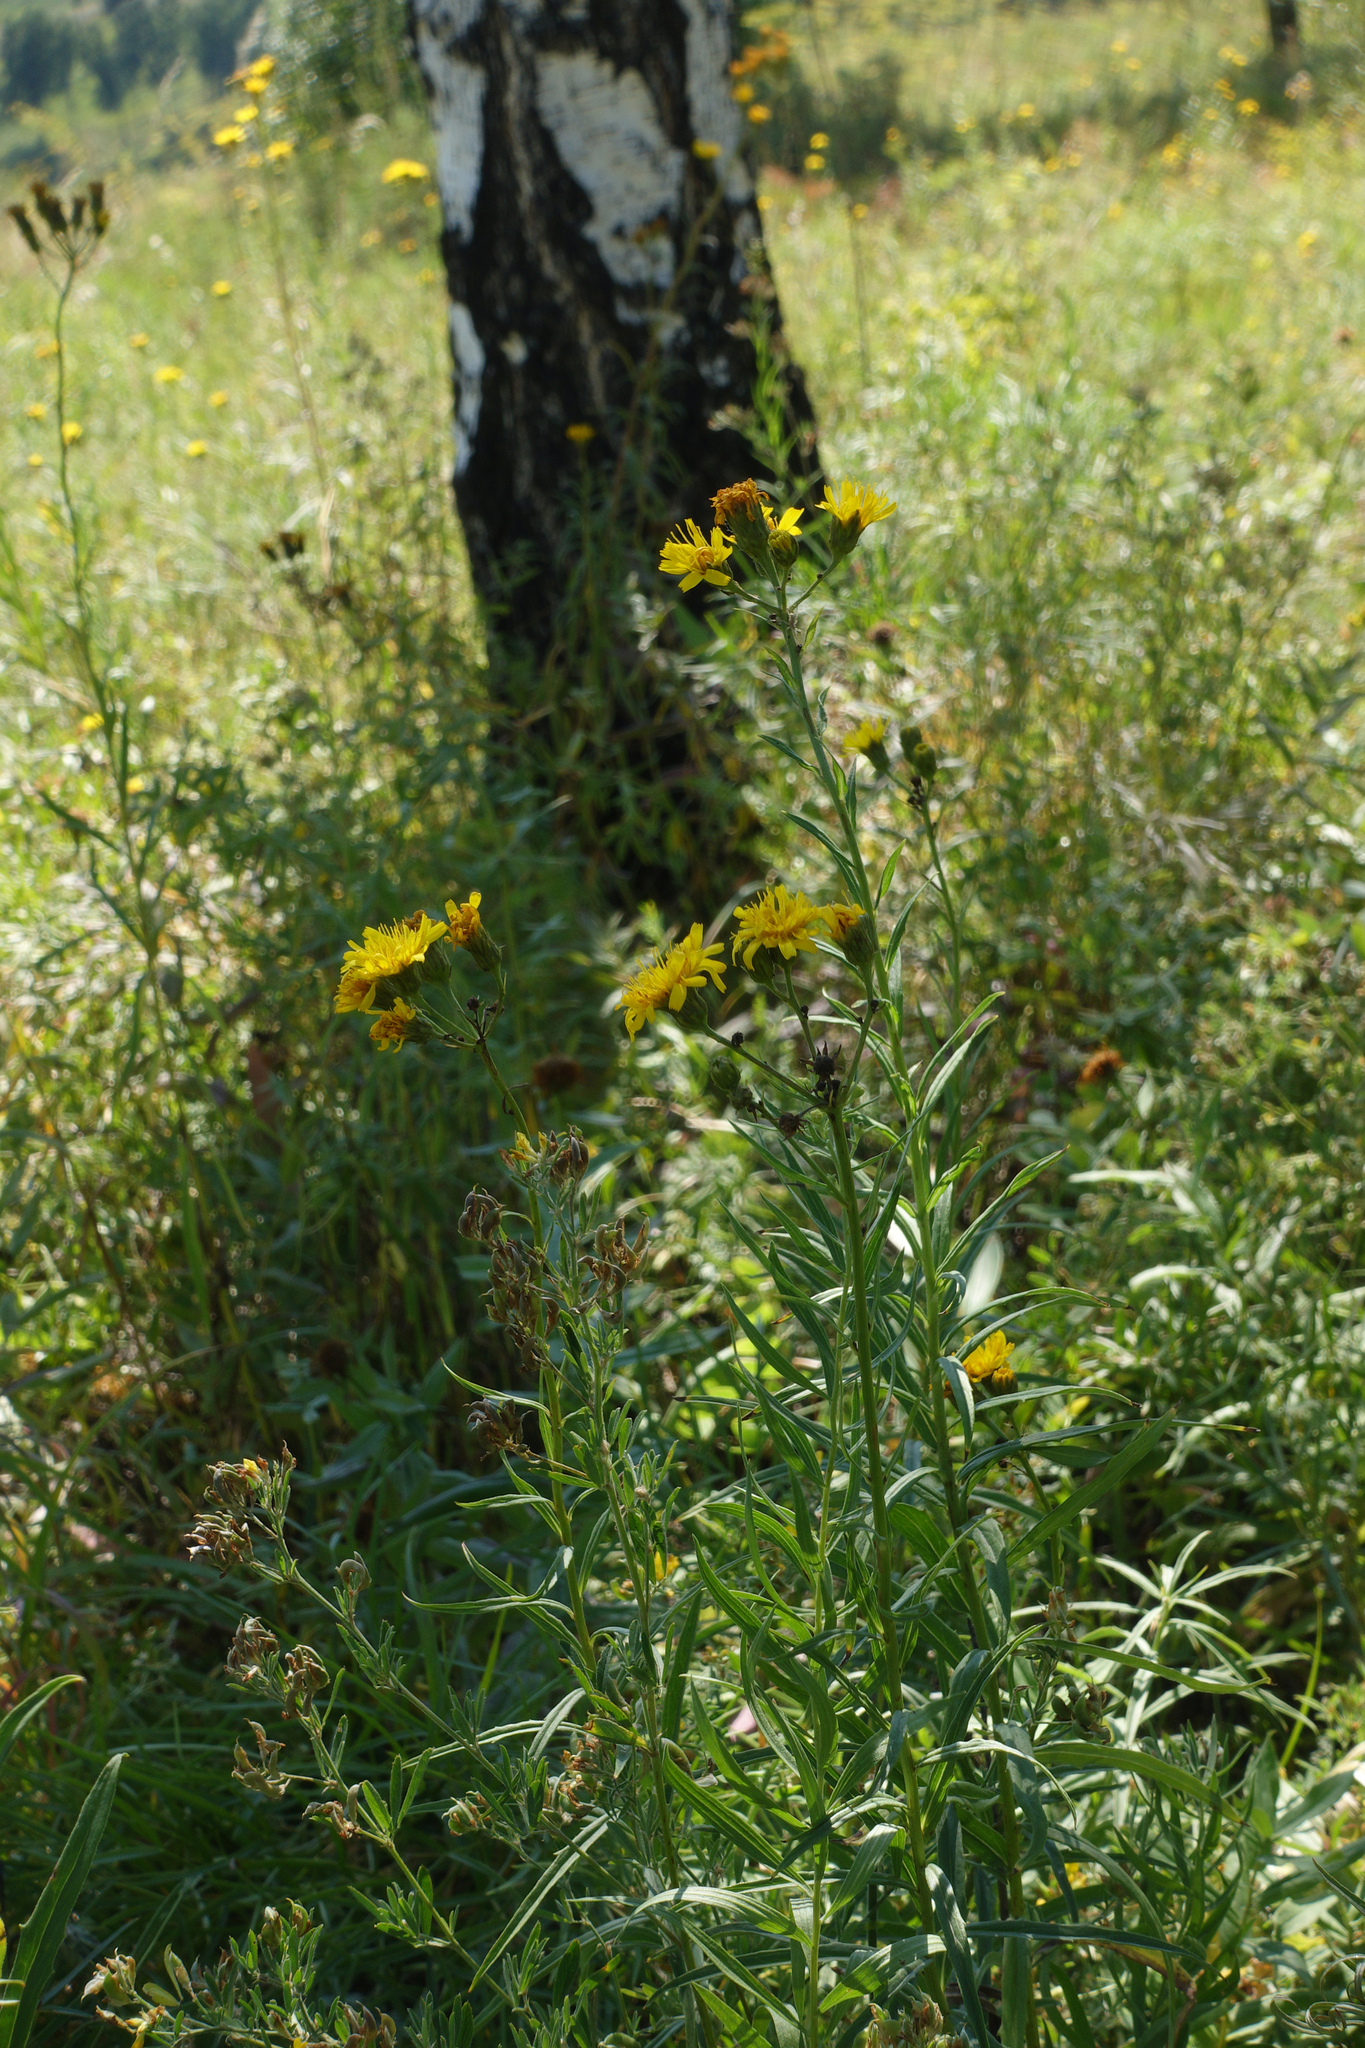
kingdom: Plantae
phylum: Tracheophyta
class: Magnoliopsida
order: Asterales
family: Asteraceae
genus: Hieracium
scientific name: Hieracium umbellatum
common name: Northern hawkweed
